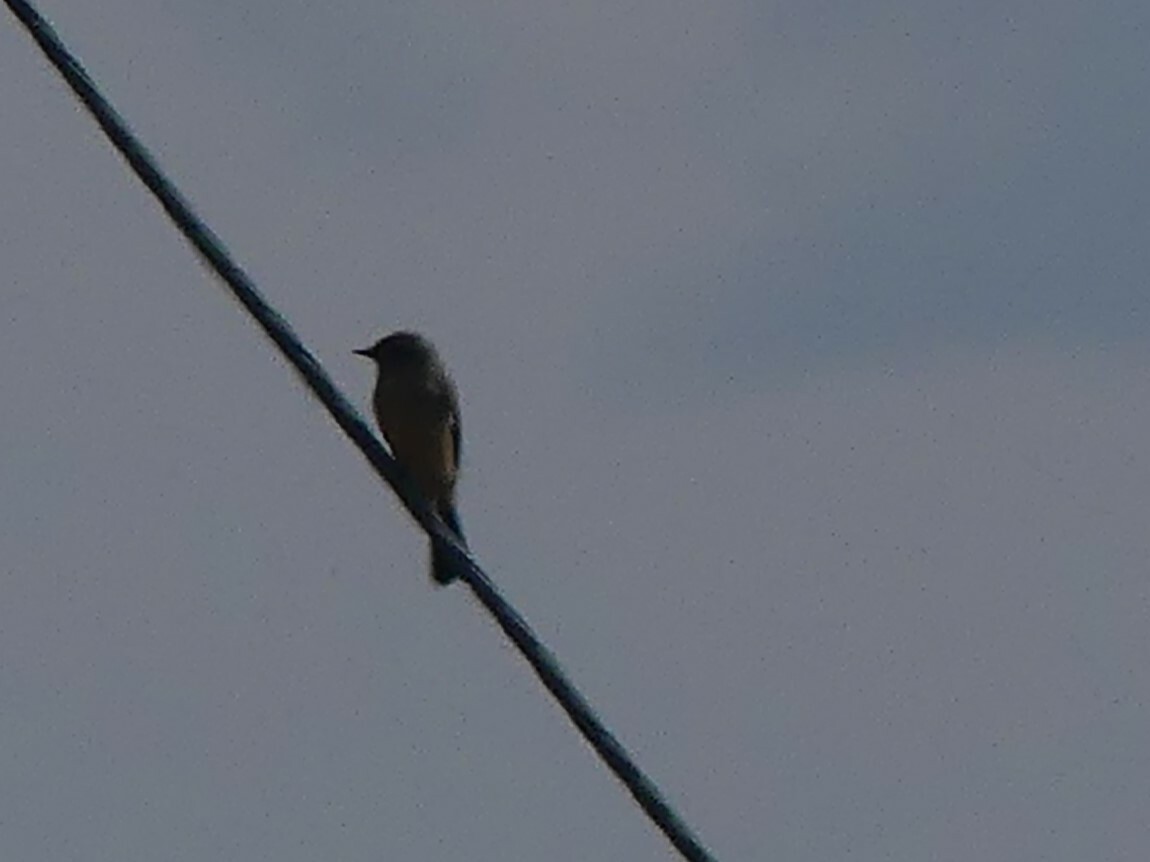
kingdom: Animalia
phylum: Chordata
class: Aves
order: Passeriformes
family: Tyrannidae
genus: Sayornis
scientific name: Sayornis saya
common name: Say's phoebe
